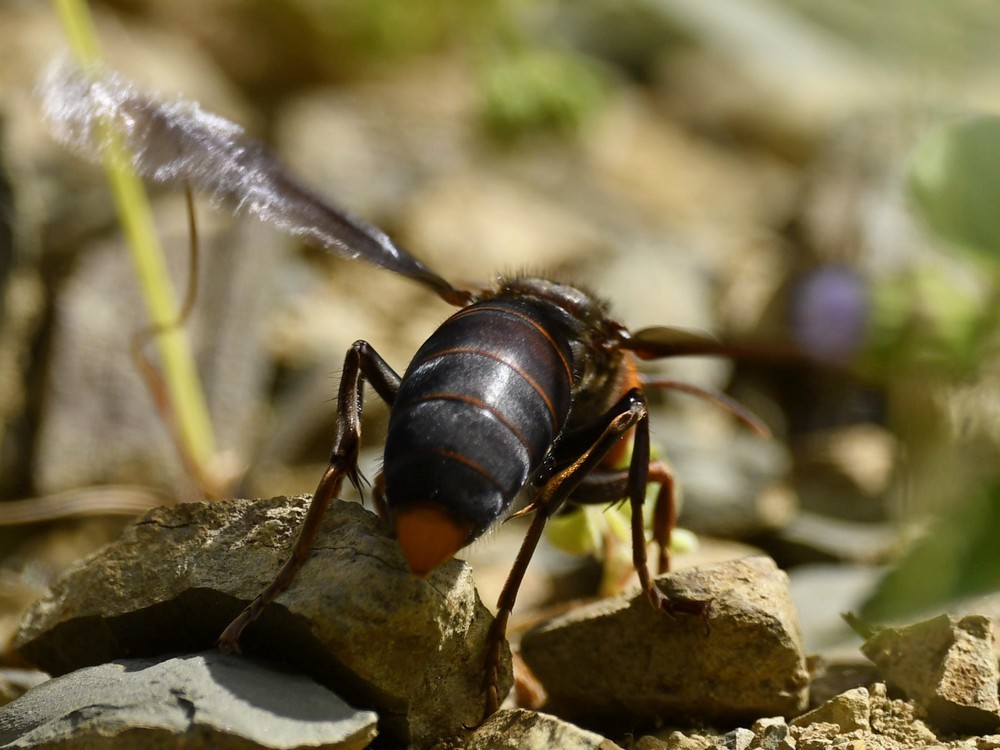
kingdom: Animalia
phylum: Arthropoda
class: Insecta
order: Hymenoptera
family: Vespidae
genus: Vespa
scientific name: Vespa mandarinia
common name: Asian giant hornet
